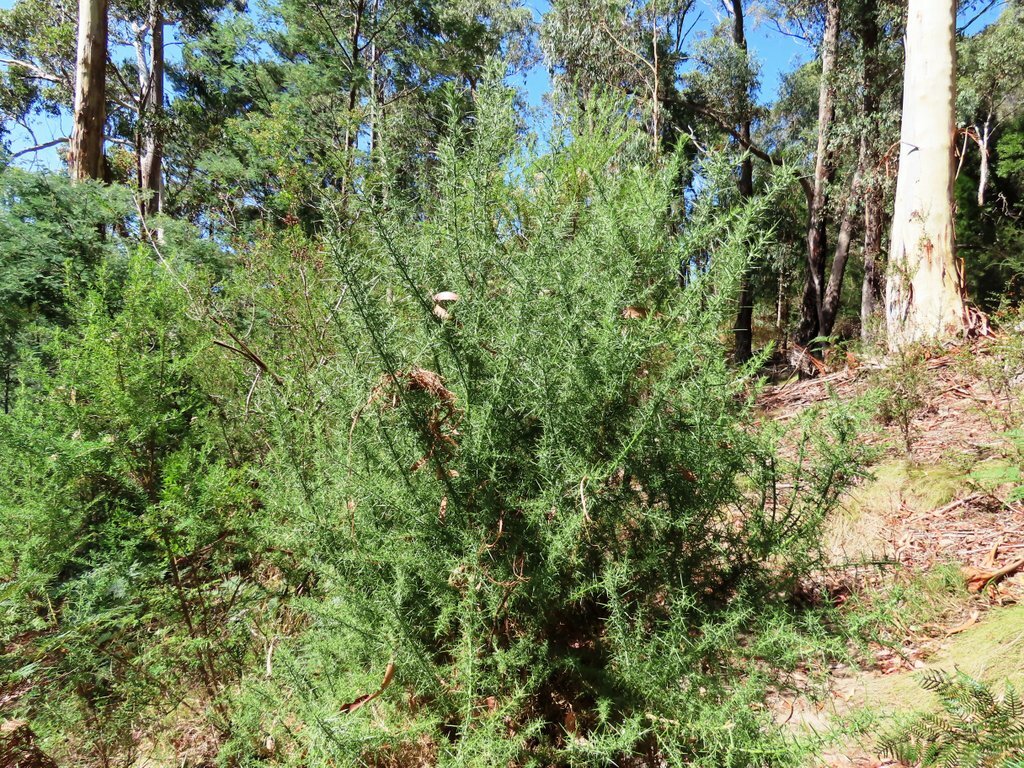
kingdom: Plantae
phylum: Tracheophyta
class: Magnoliopsida
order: Fabales
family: Fabaceae
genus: Ulex
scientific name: Ulex europaeus
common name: Common gorse
